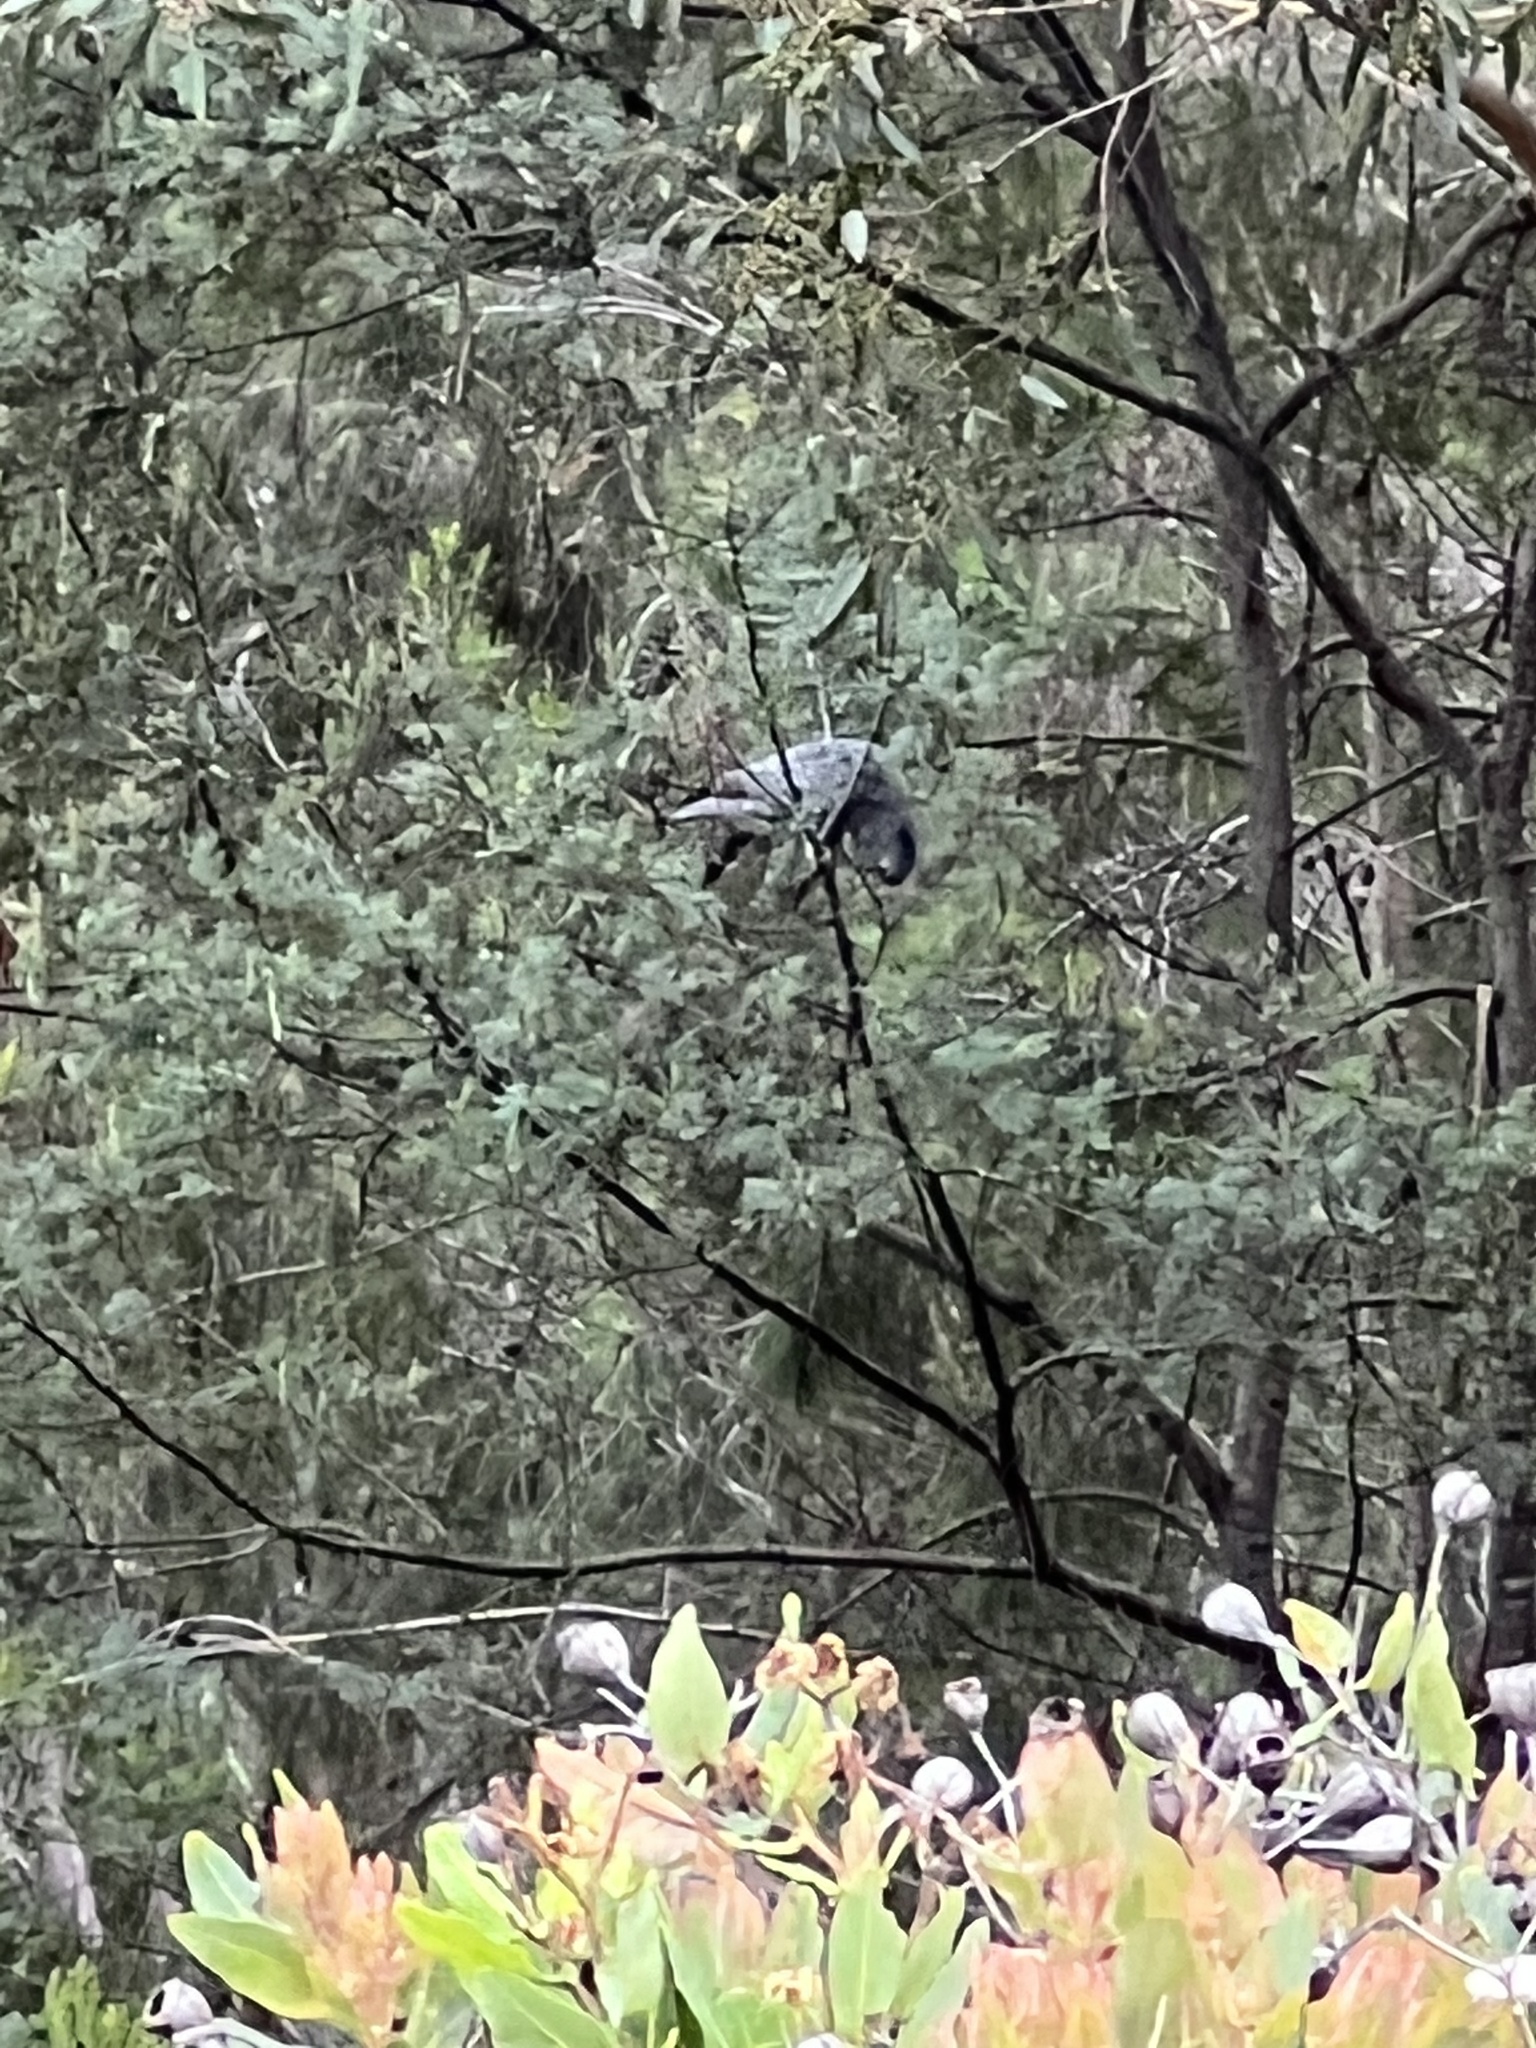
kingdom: Animalia
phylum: Chordata
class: Aves
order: Psittaciformes
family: Psittacidae
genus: Callocephalon
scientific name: Callocephalon fimbriatum
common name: Gang-gang cockatoo
